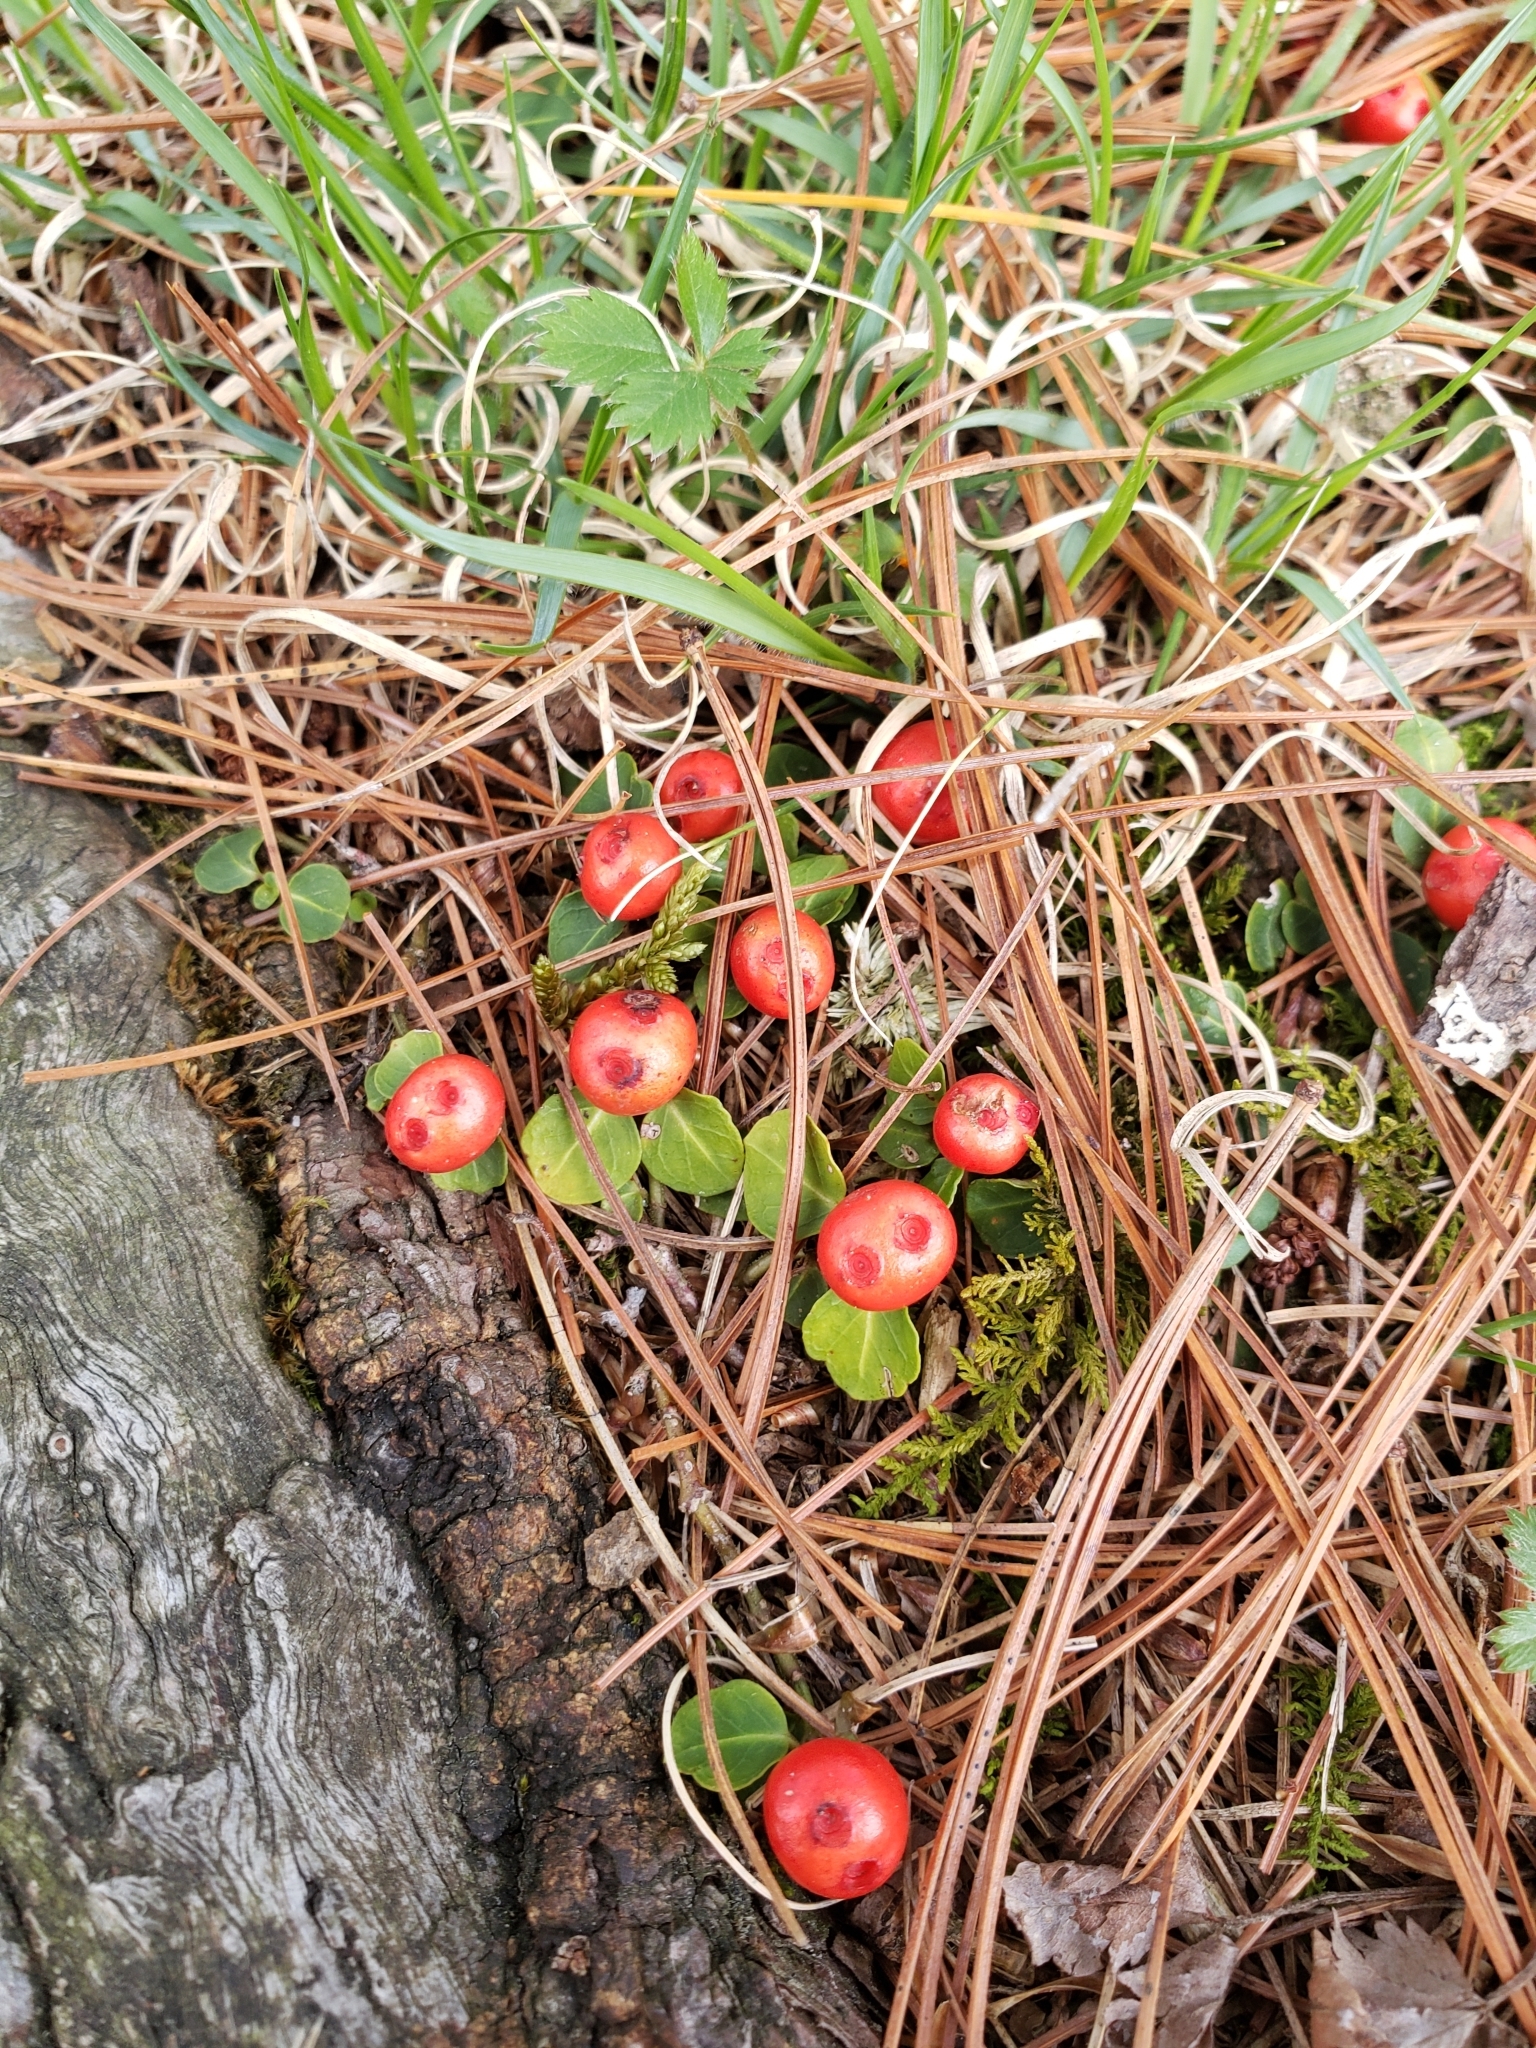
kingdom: Plantae
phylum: Tracheophyta
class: Magnoliopsida
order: Gentianales
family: Rubiaceae
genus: Mitchella
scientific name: Mitchella repens
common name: Partridge-berry
